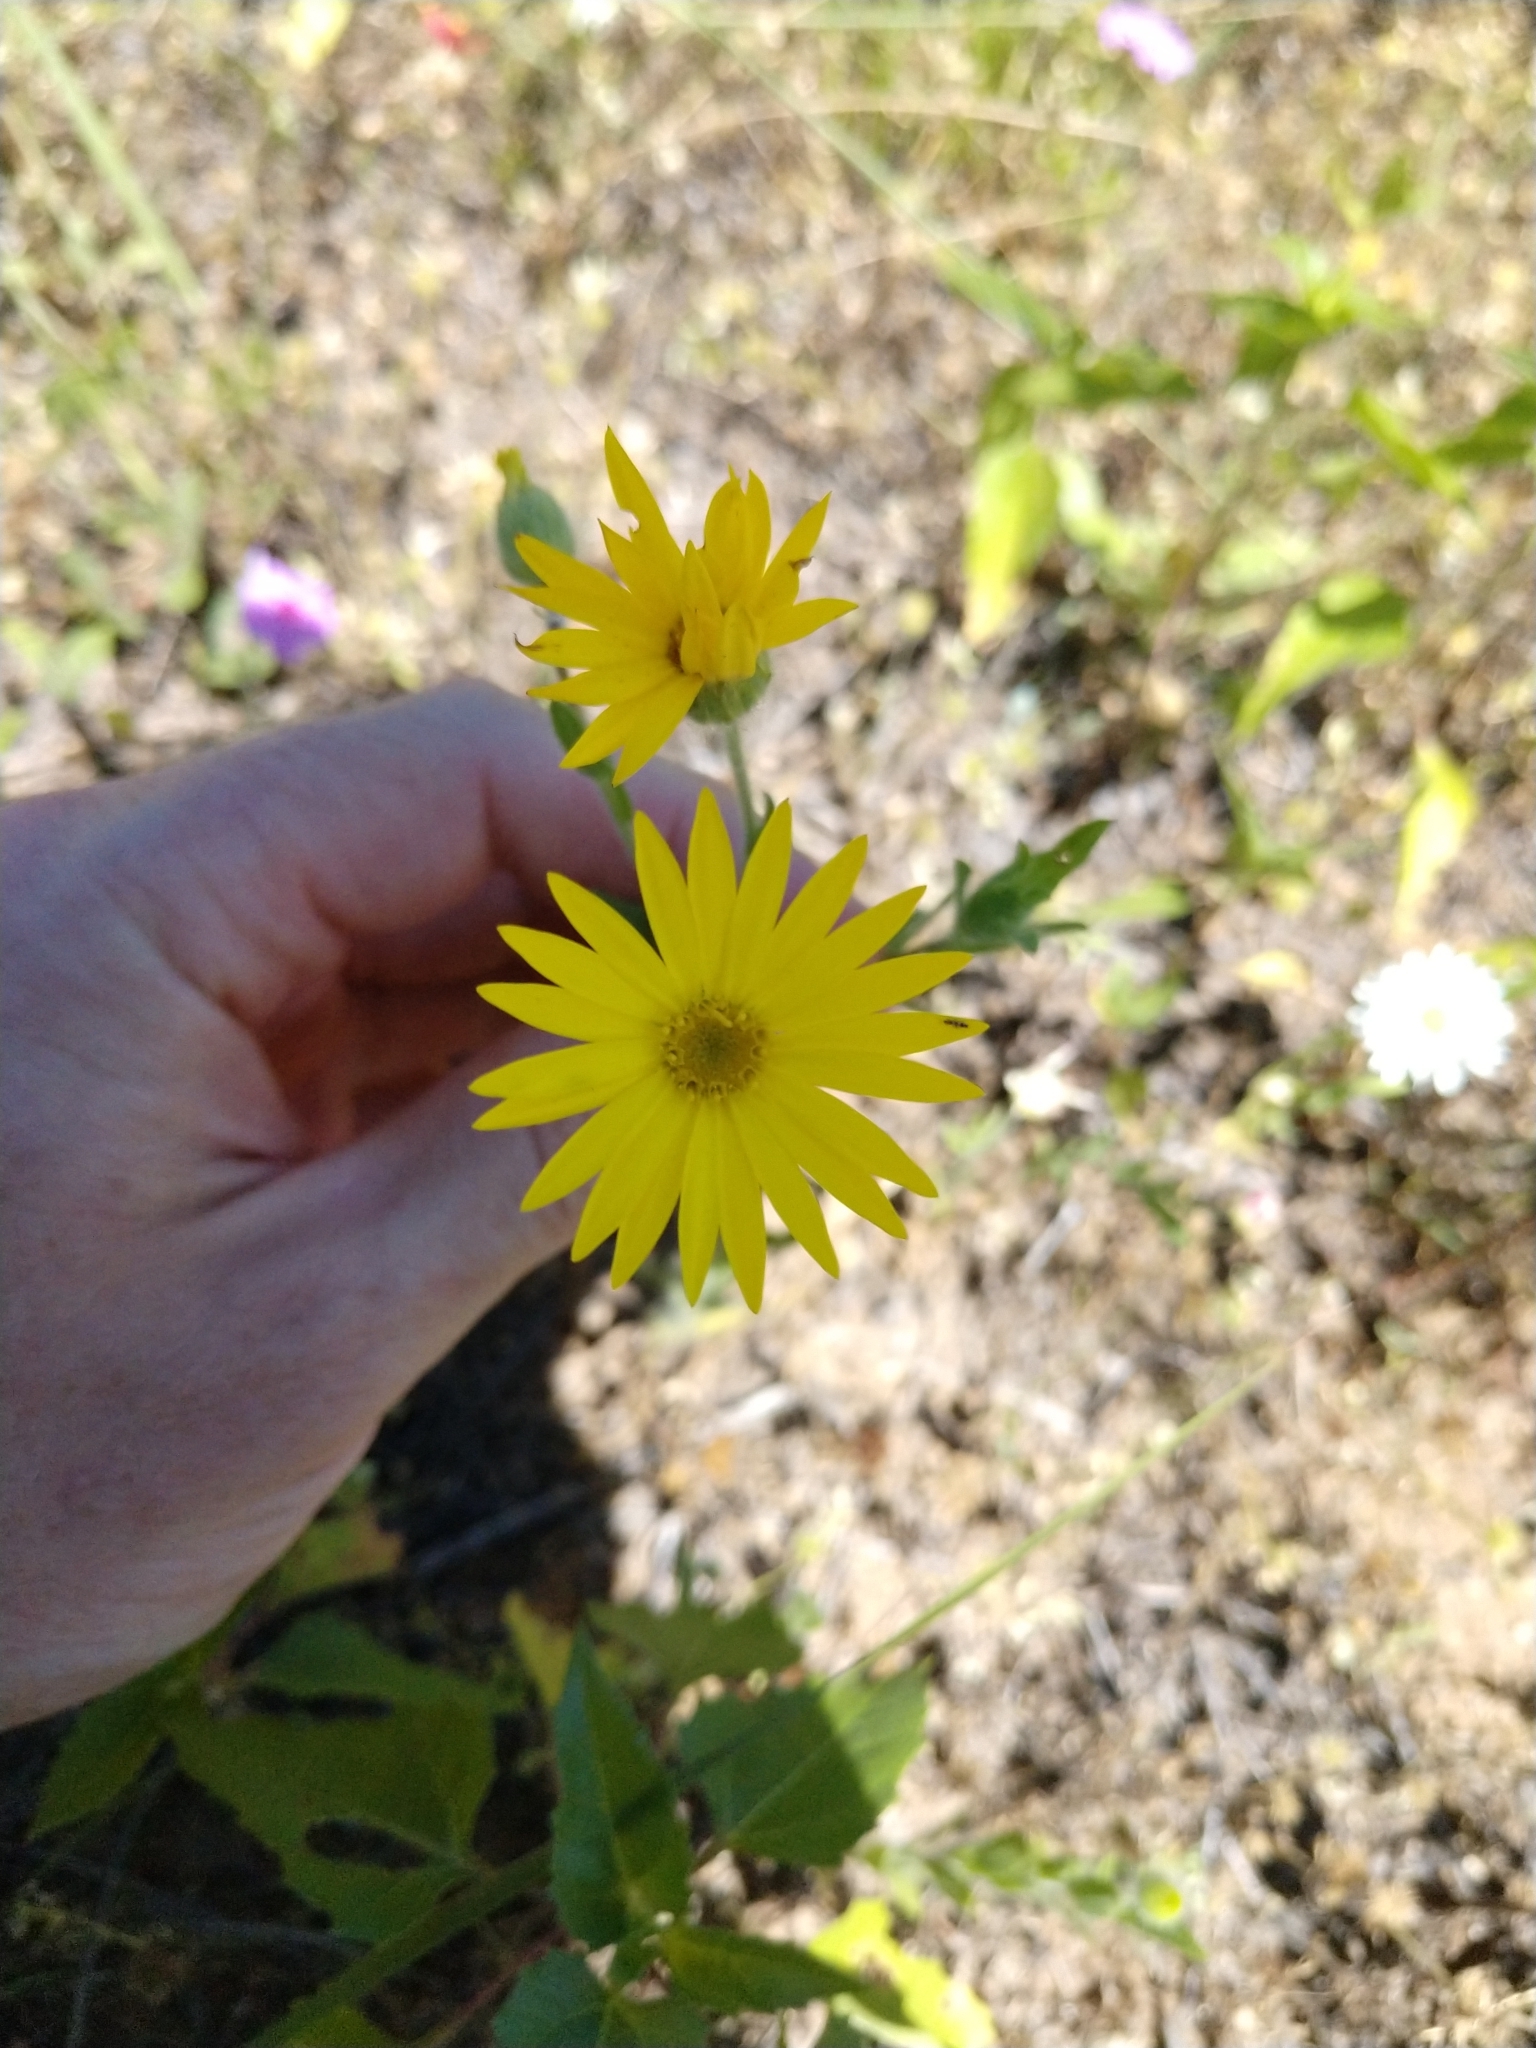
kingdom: Plantae
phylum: Tracheophyta
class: Magnoliopsida
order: Asterales
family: Asteraceae
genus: Xanthisma
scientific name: Xanthisma texanum
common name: Texas sleepy daisy
